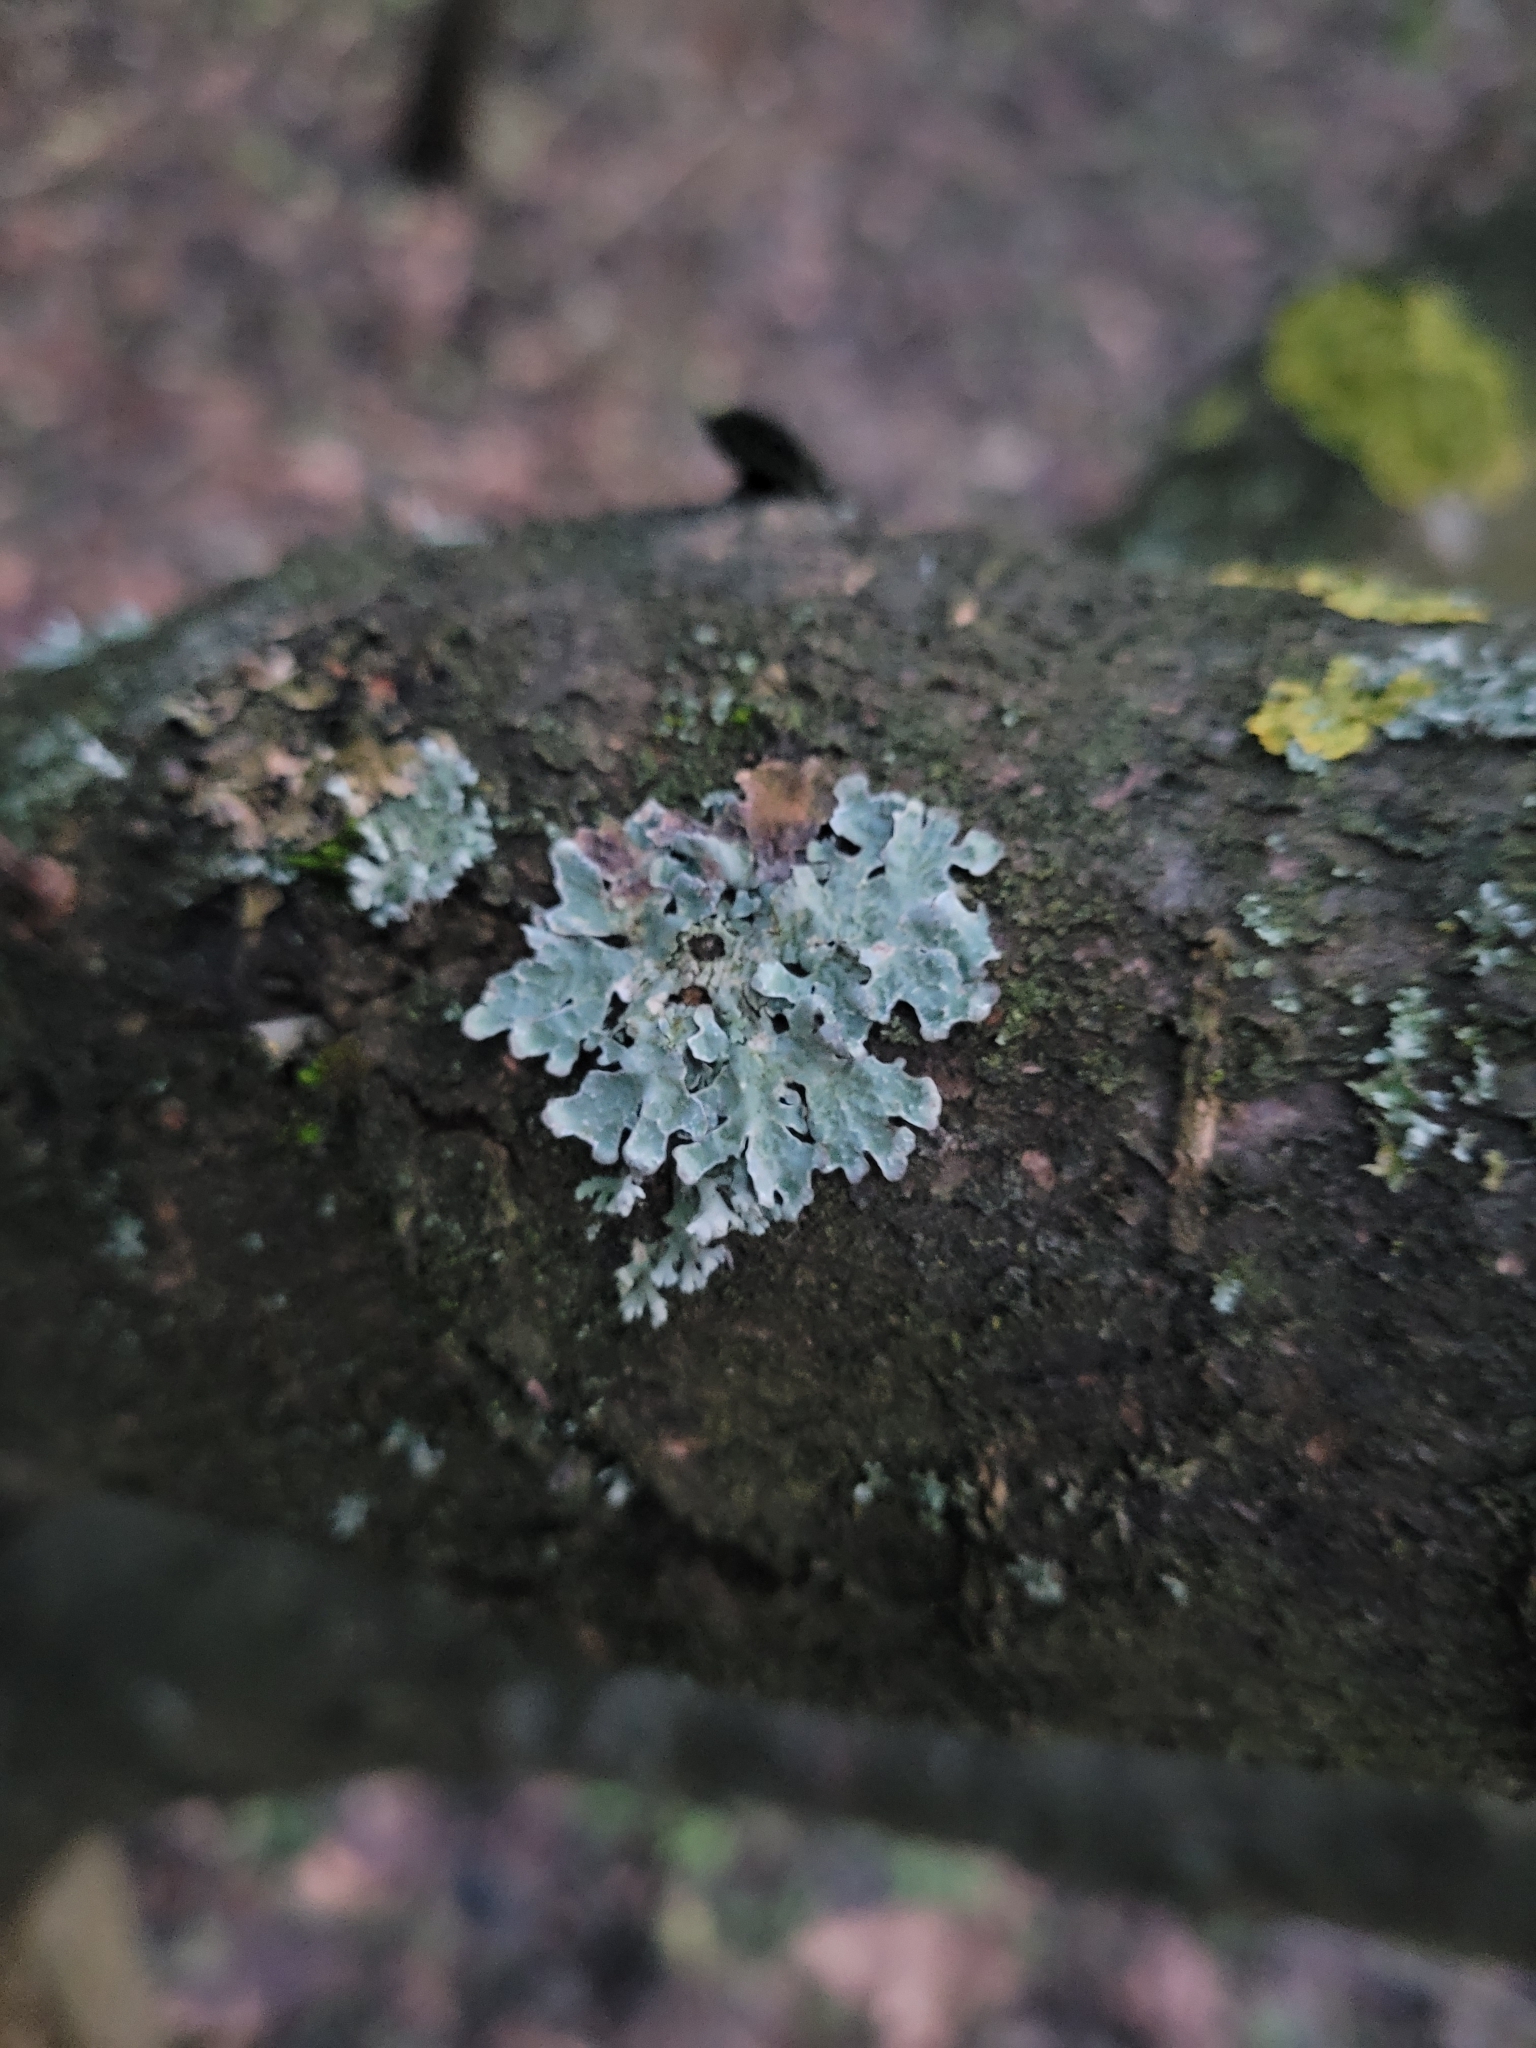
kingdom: Fungi
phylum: Ascomycota
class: Lecanoromycetes
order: Lecanorales
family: Parmeliaceae
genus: Parmelia
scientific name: Parmelia sulcata
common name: Netted shield lichen
